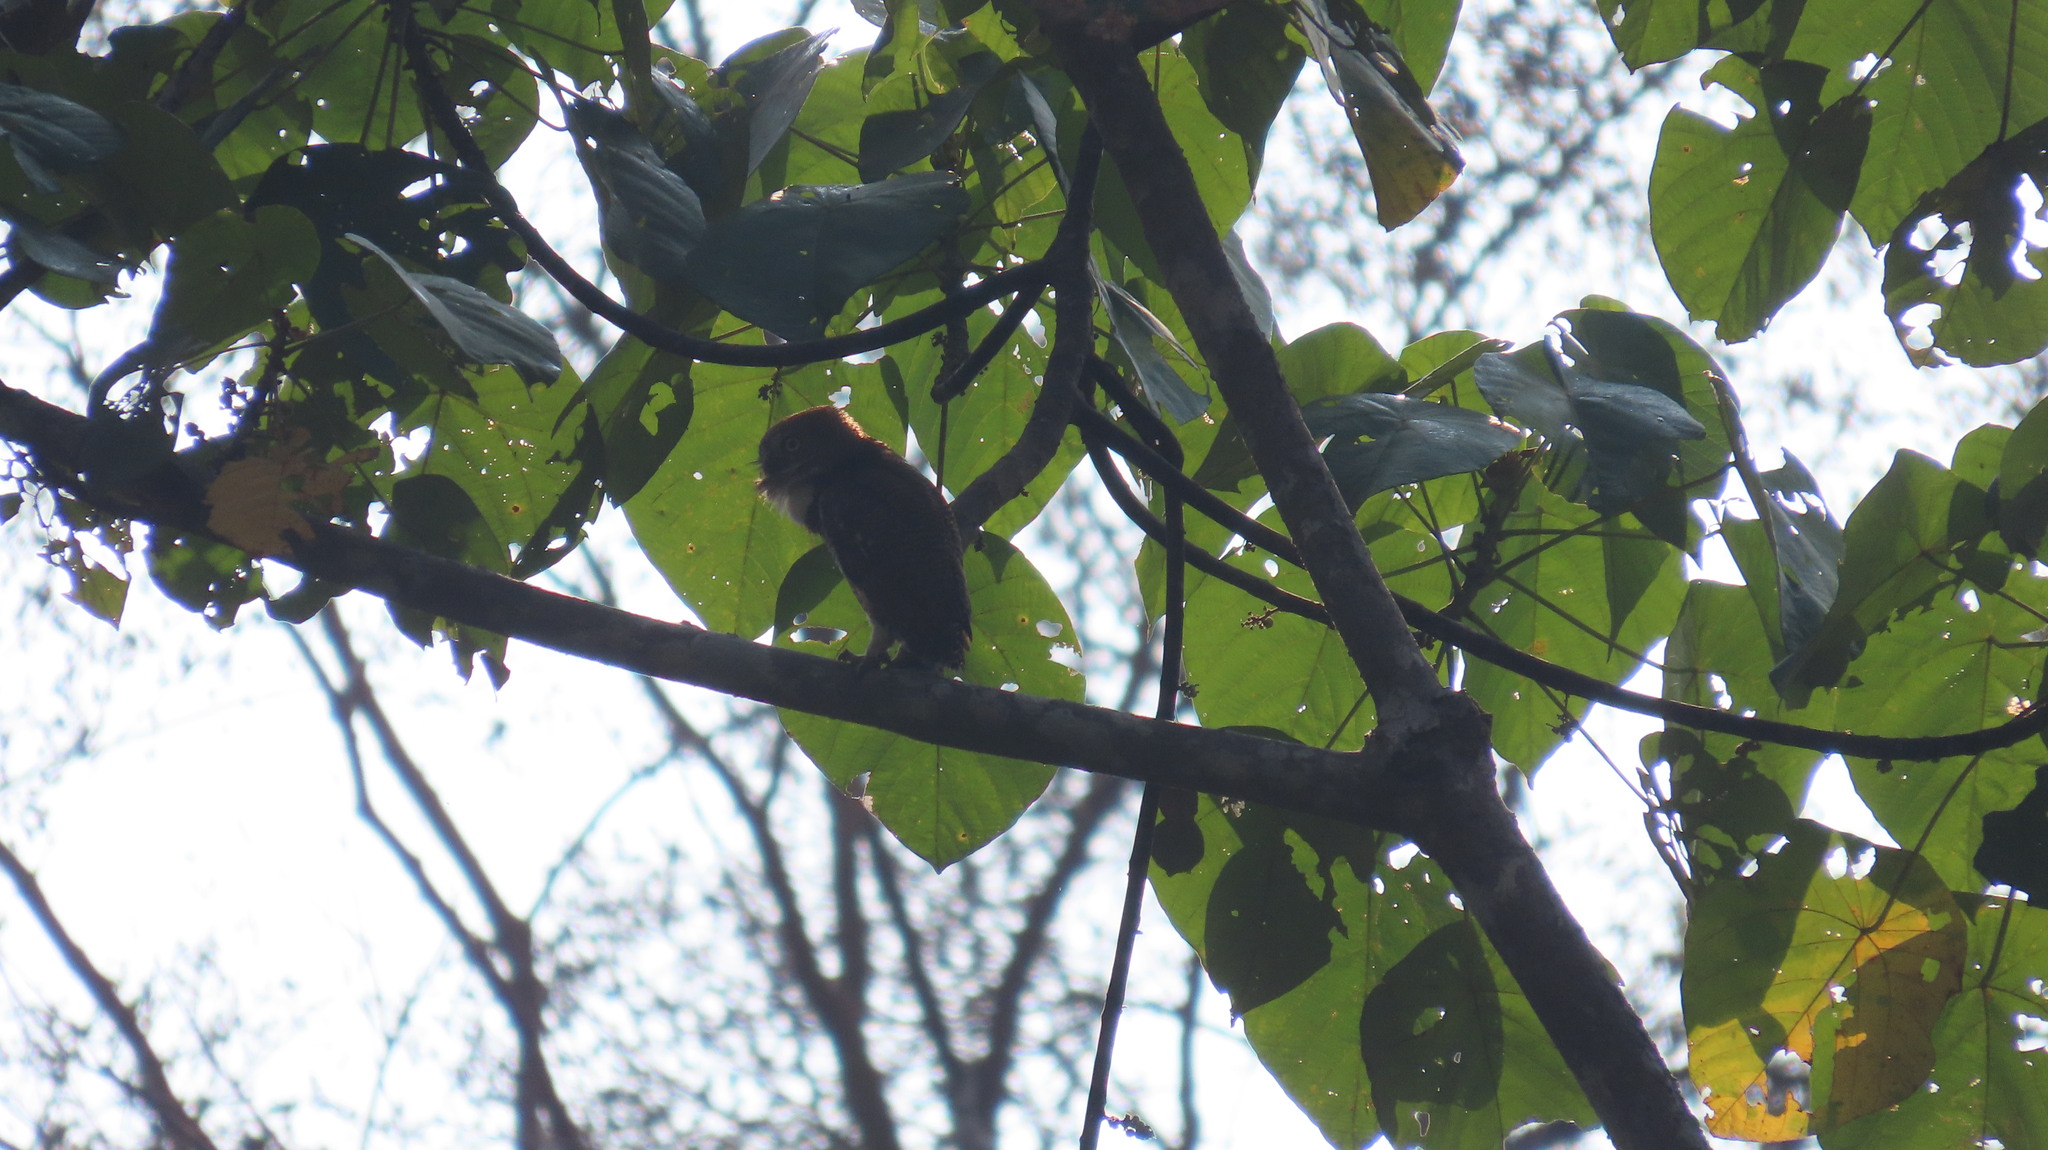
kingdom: Animalia
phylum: Chordata
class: Aves
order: Strigiformes
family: Strigidae
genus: Glaucidium
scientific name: Glaucidium radiatum
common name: Jungle owlet
